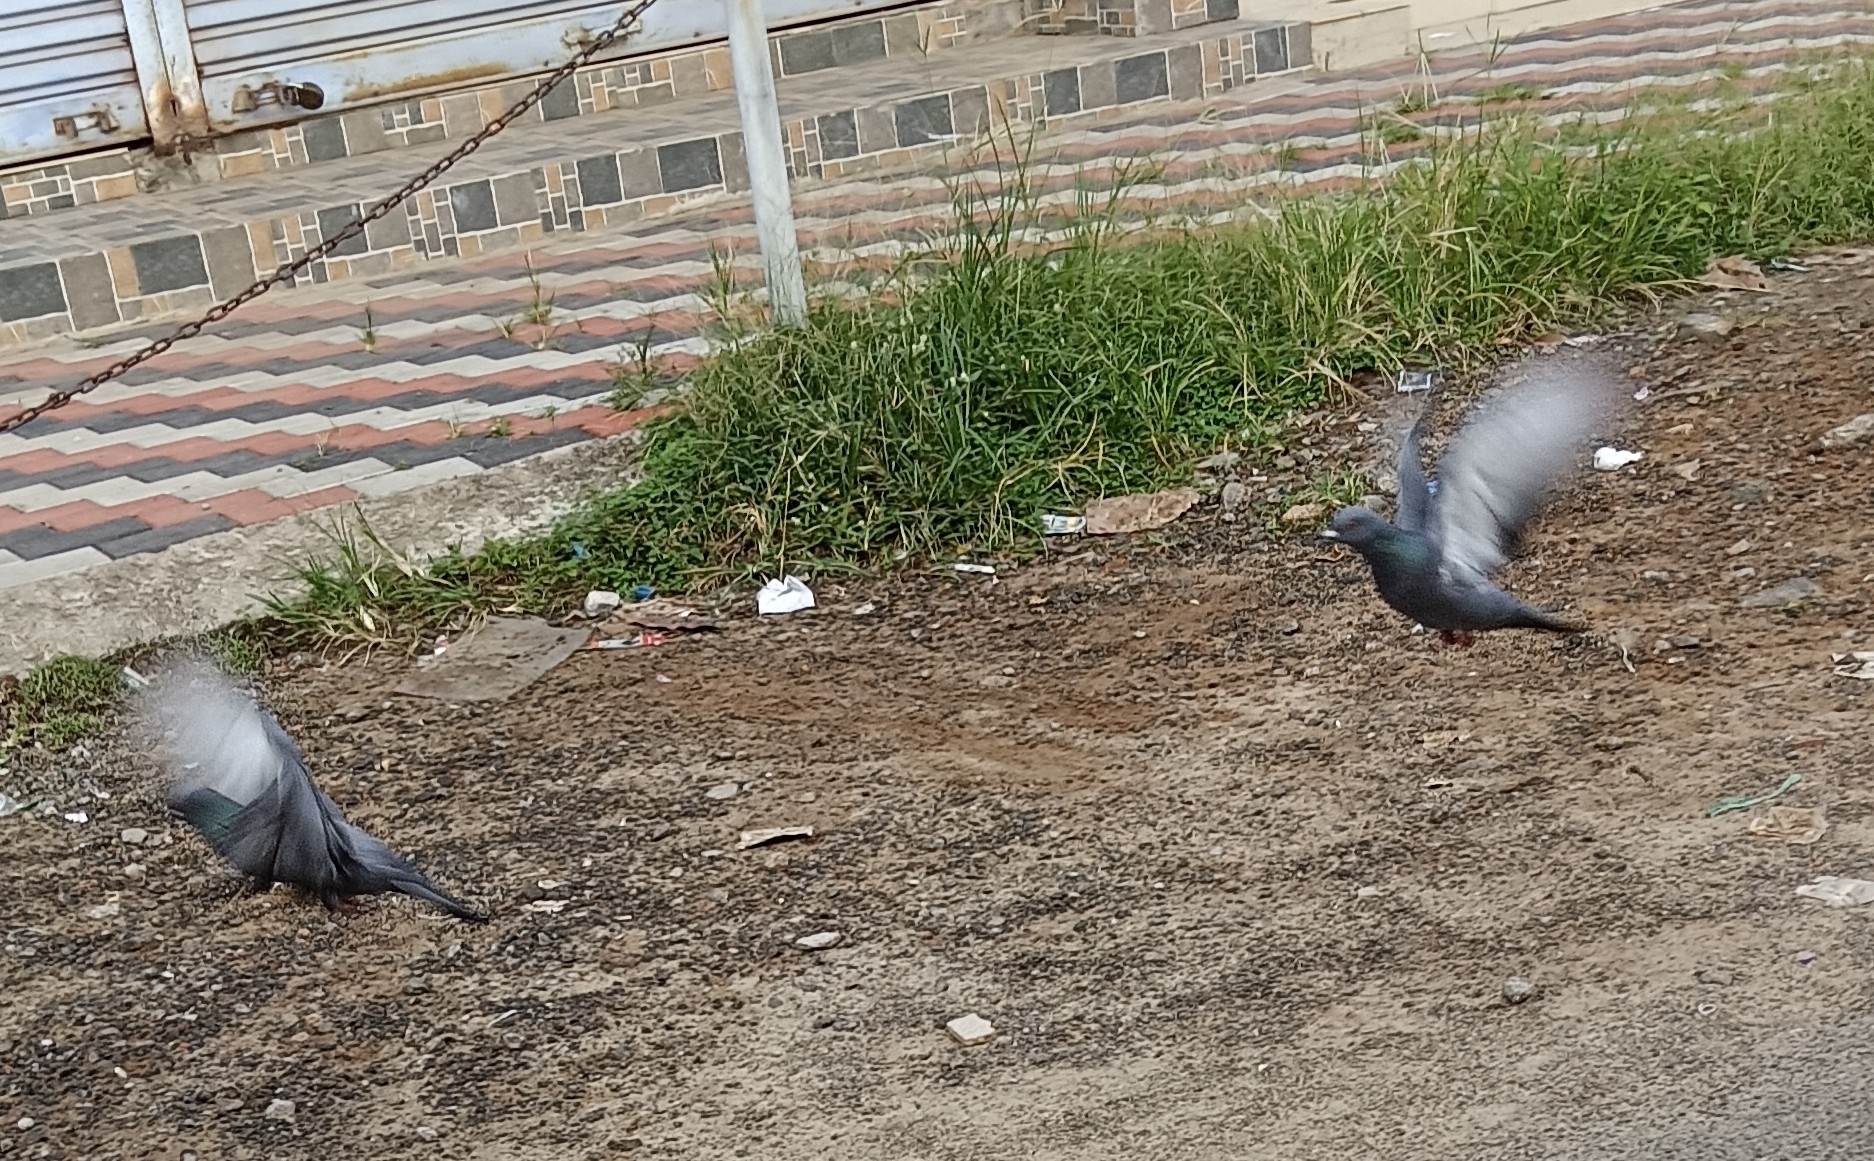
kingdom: Animalia
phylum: Chordata
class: Aves
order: Columbiformes
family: Columbidae
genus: Columba
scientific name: Columba livia
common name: Rock pigeon
